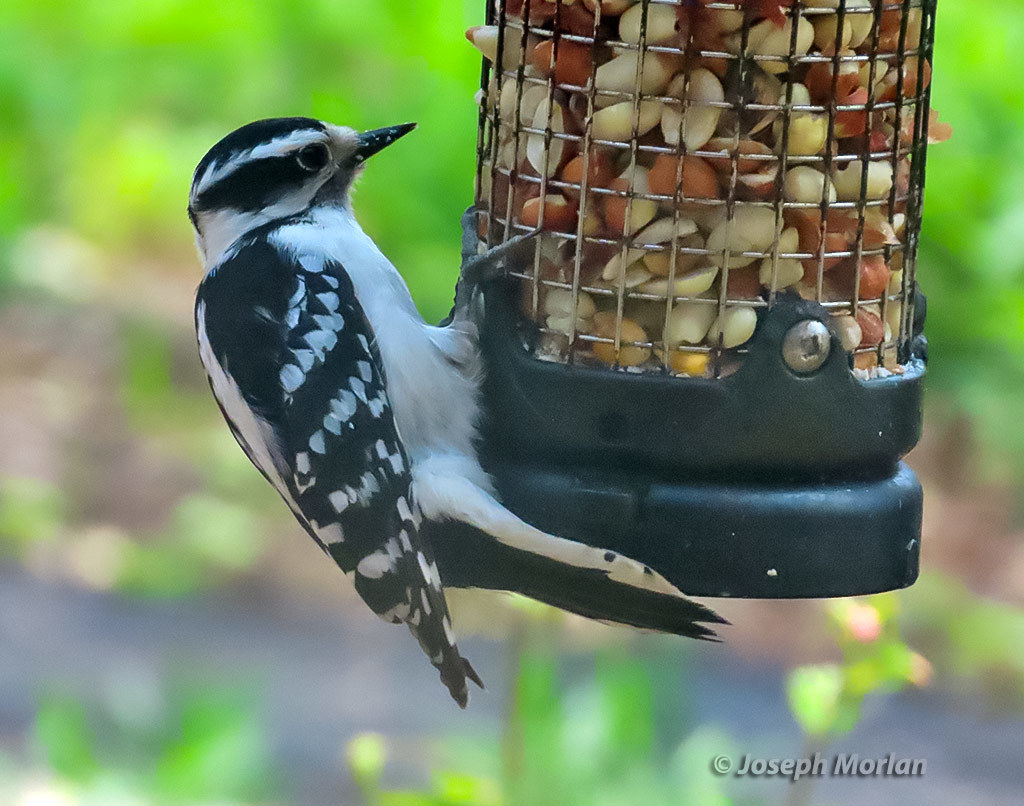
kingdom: Animalia
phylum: Chordata
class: Aves
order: Piciformes
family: Picidae
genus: Dryobates
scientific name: Dryobates pubescens
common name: Downy woodpecker
